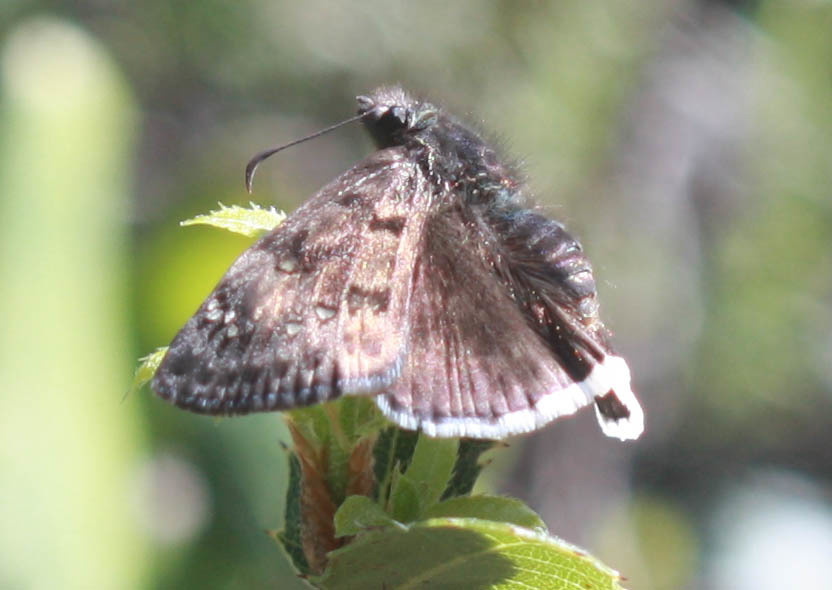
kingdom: Animalia
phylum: Arthropoda
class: Insecta
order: Lepidoptera
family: Hesperiidae
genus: Erynnis
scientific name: Erynnis tristis
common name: Mournful duskywing
